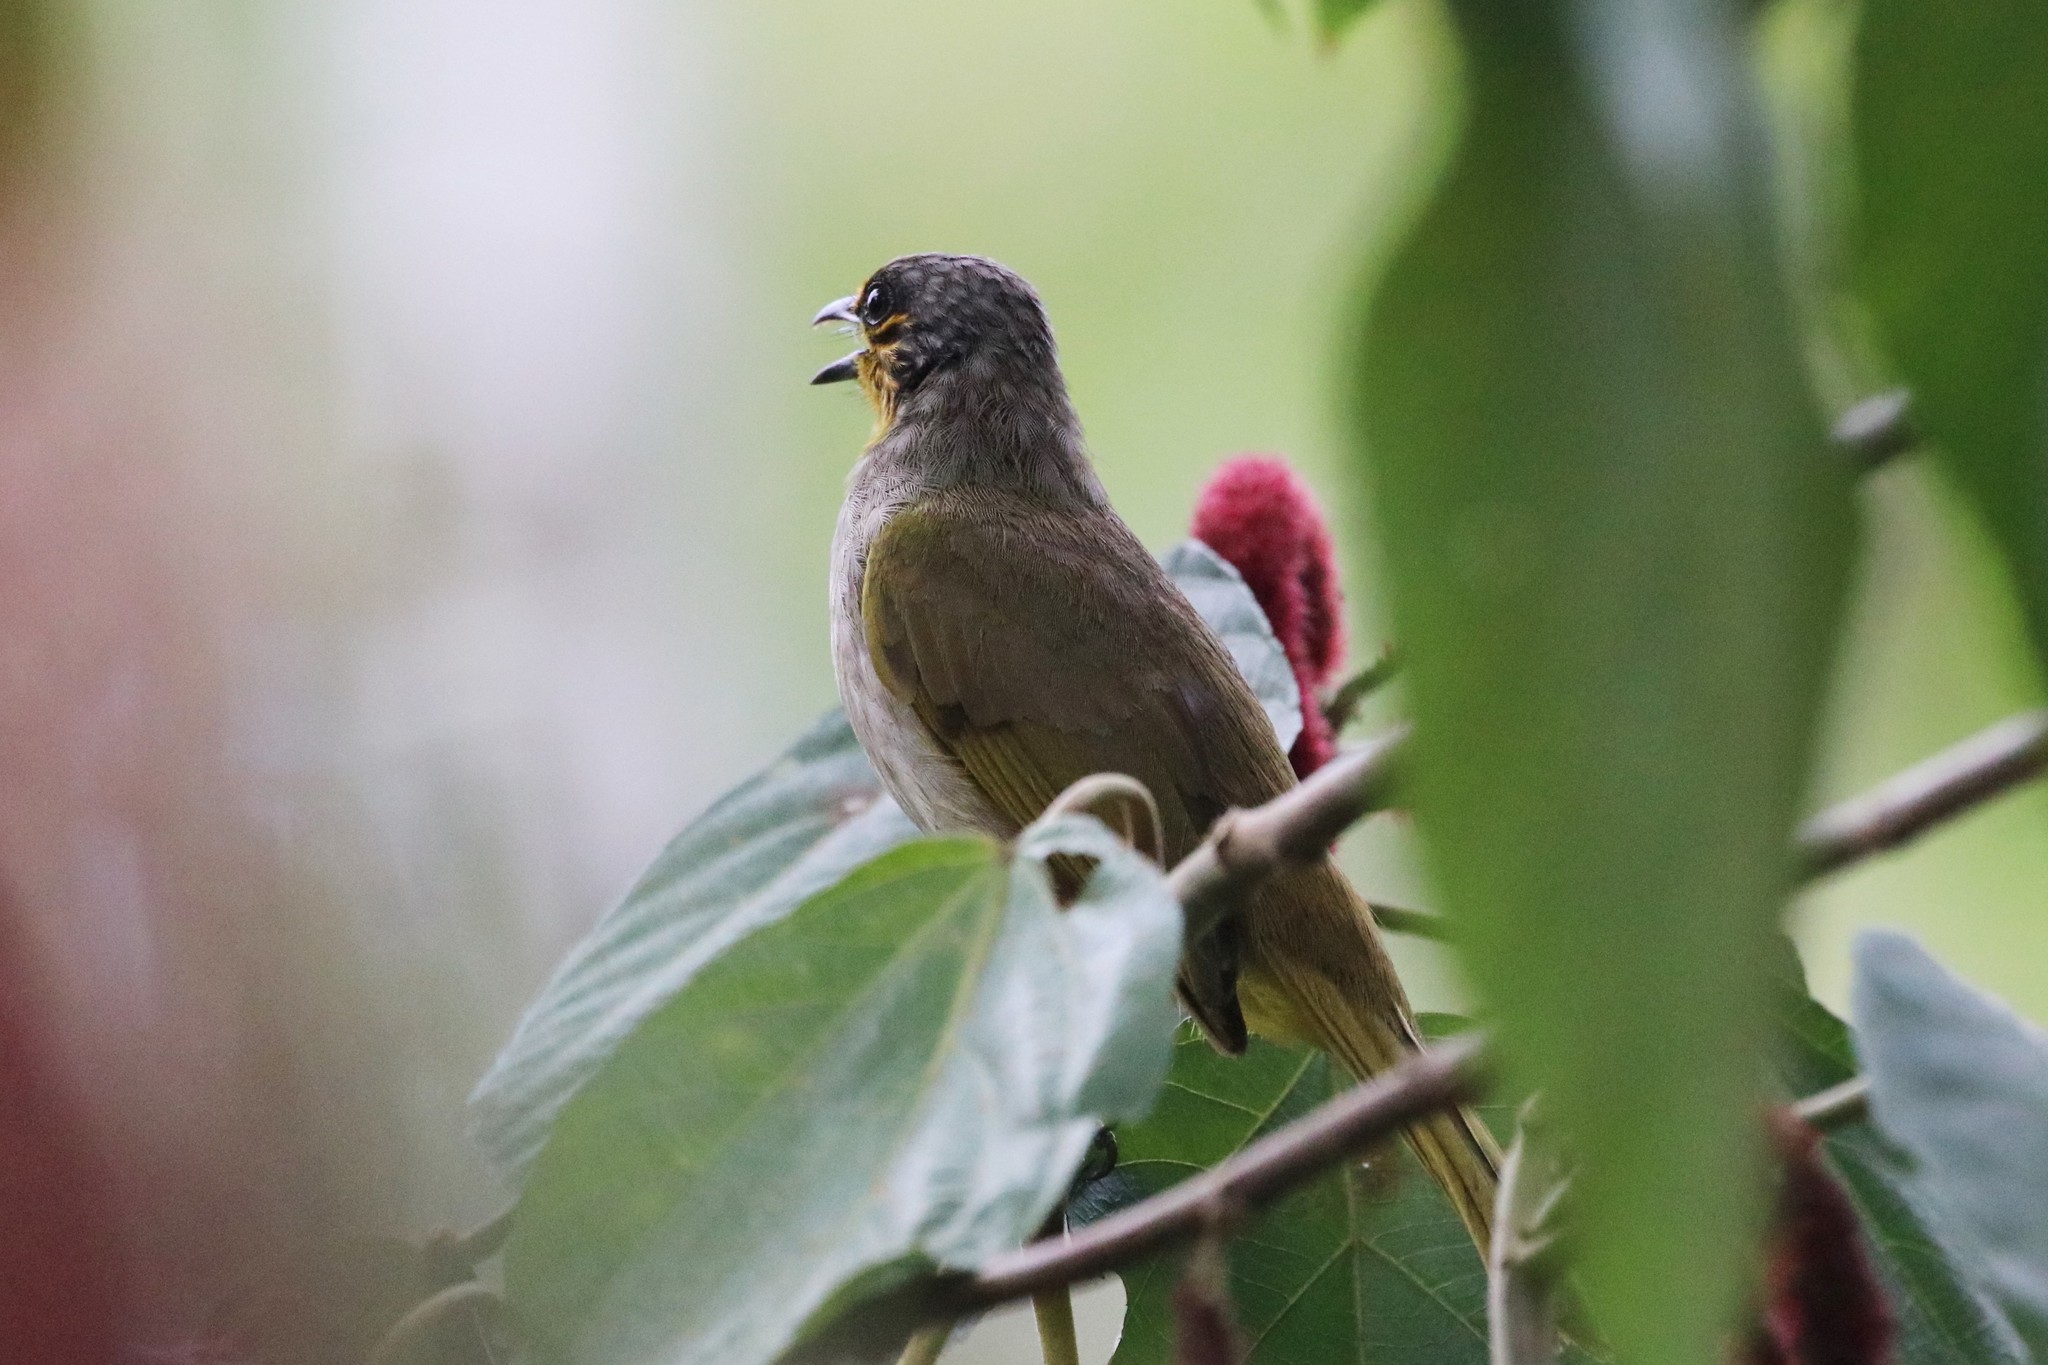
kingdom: Animalia
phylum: Chordata
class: Aves
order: Passeriformes
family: Pycnonotidae
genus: Pycnonotus
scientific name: Pycnonotus finlaysoni
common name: Stripe-throated bulbul
